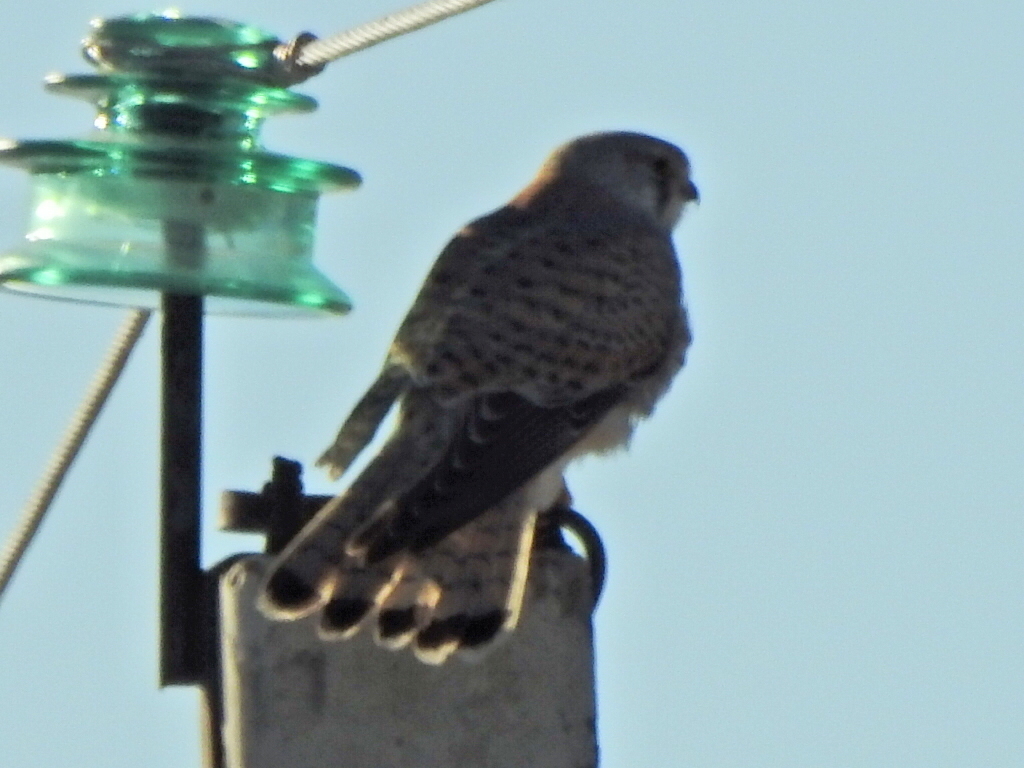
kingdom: Animalia
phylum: Chordata
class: Aves
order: Falconiformes
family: Falconidae
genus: Falco
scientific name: Falco tinnunculus
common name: Common kestrel
